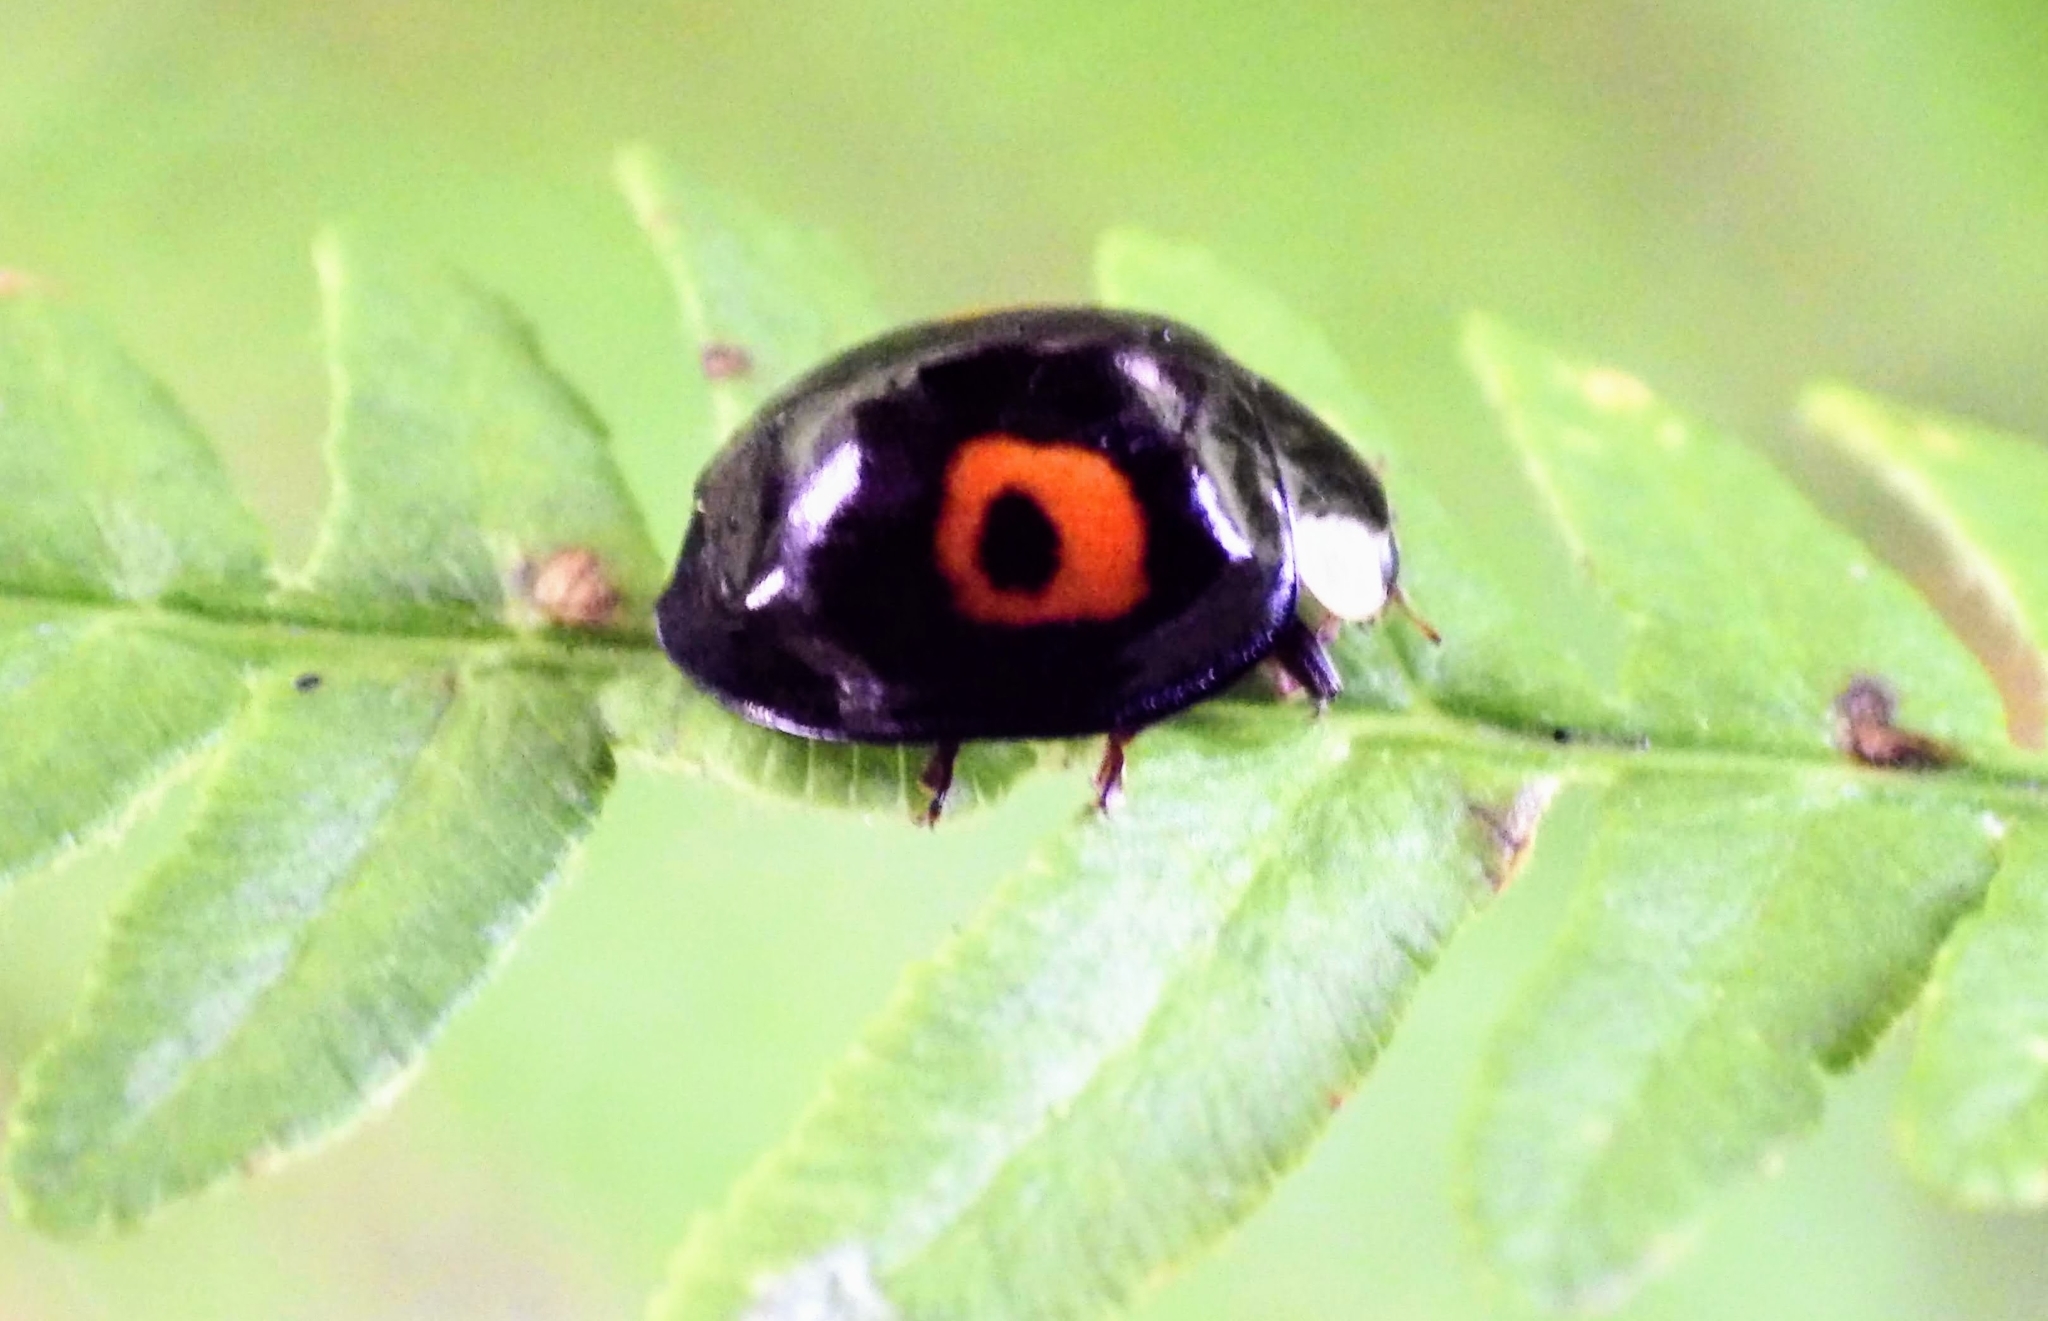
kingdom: Animalia
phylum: Arthropoda
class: Insecta
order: Coleoptera
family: Coccinellidae
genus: Harmonia
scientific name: Harmonia axyridis
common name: Harlequin ladybird
